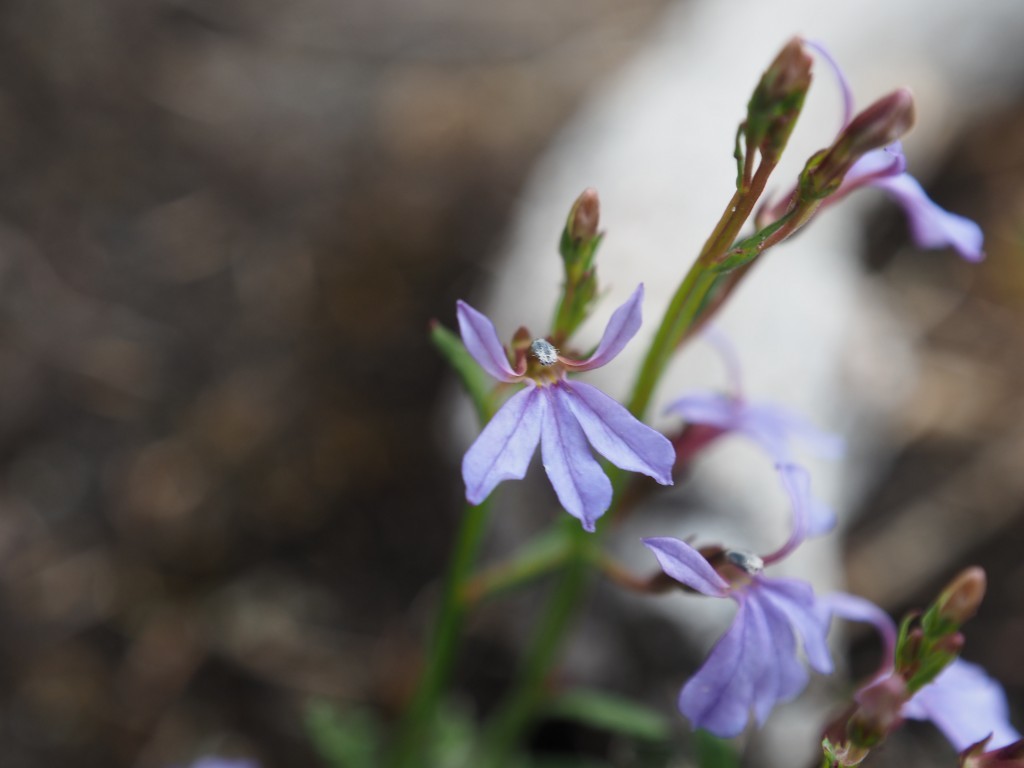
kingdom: Plantae
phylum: Tracheophyta
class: Magnoliopsida
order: Asterales
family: Campanulaceae
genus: Lobelia
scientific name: Lobelia anceps
